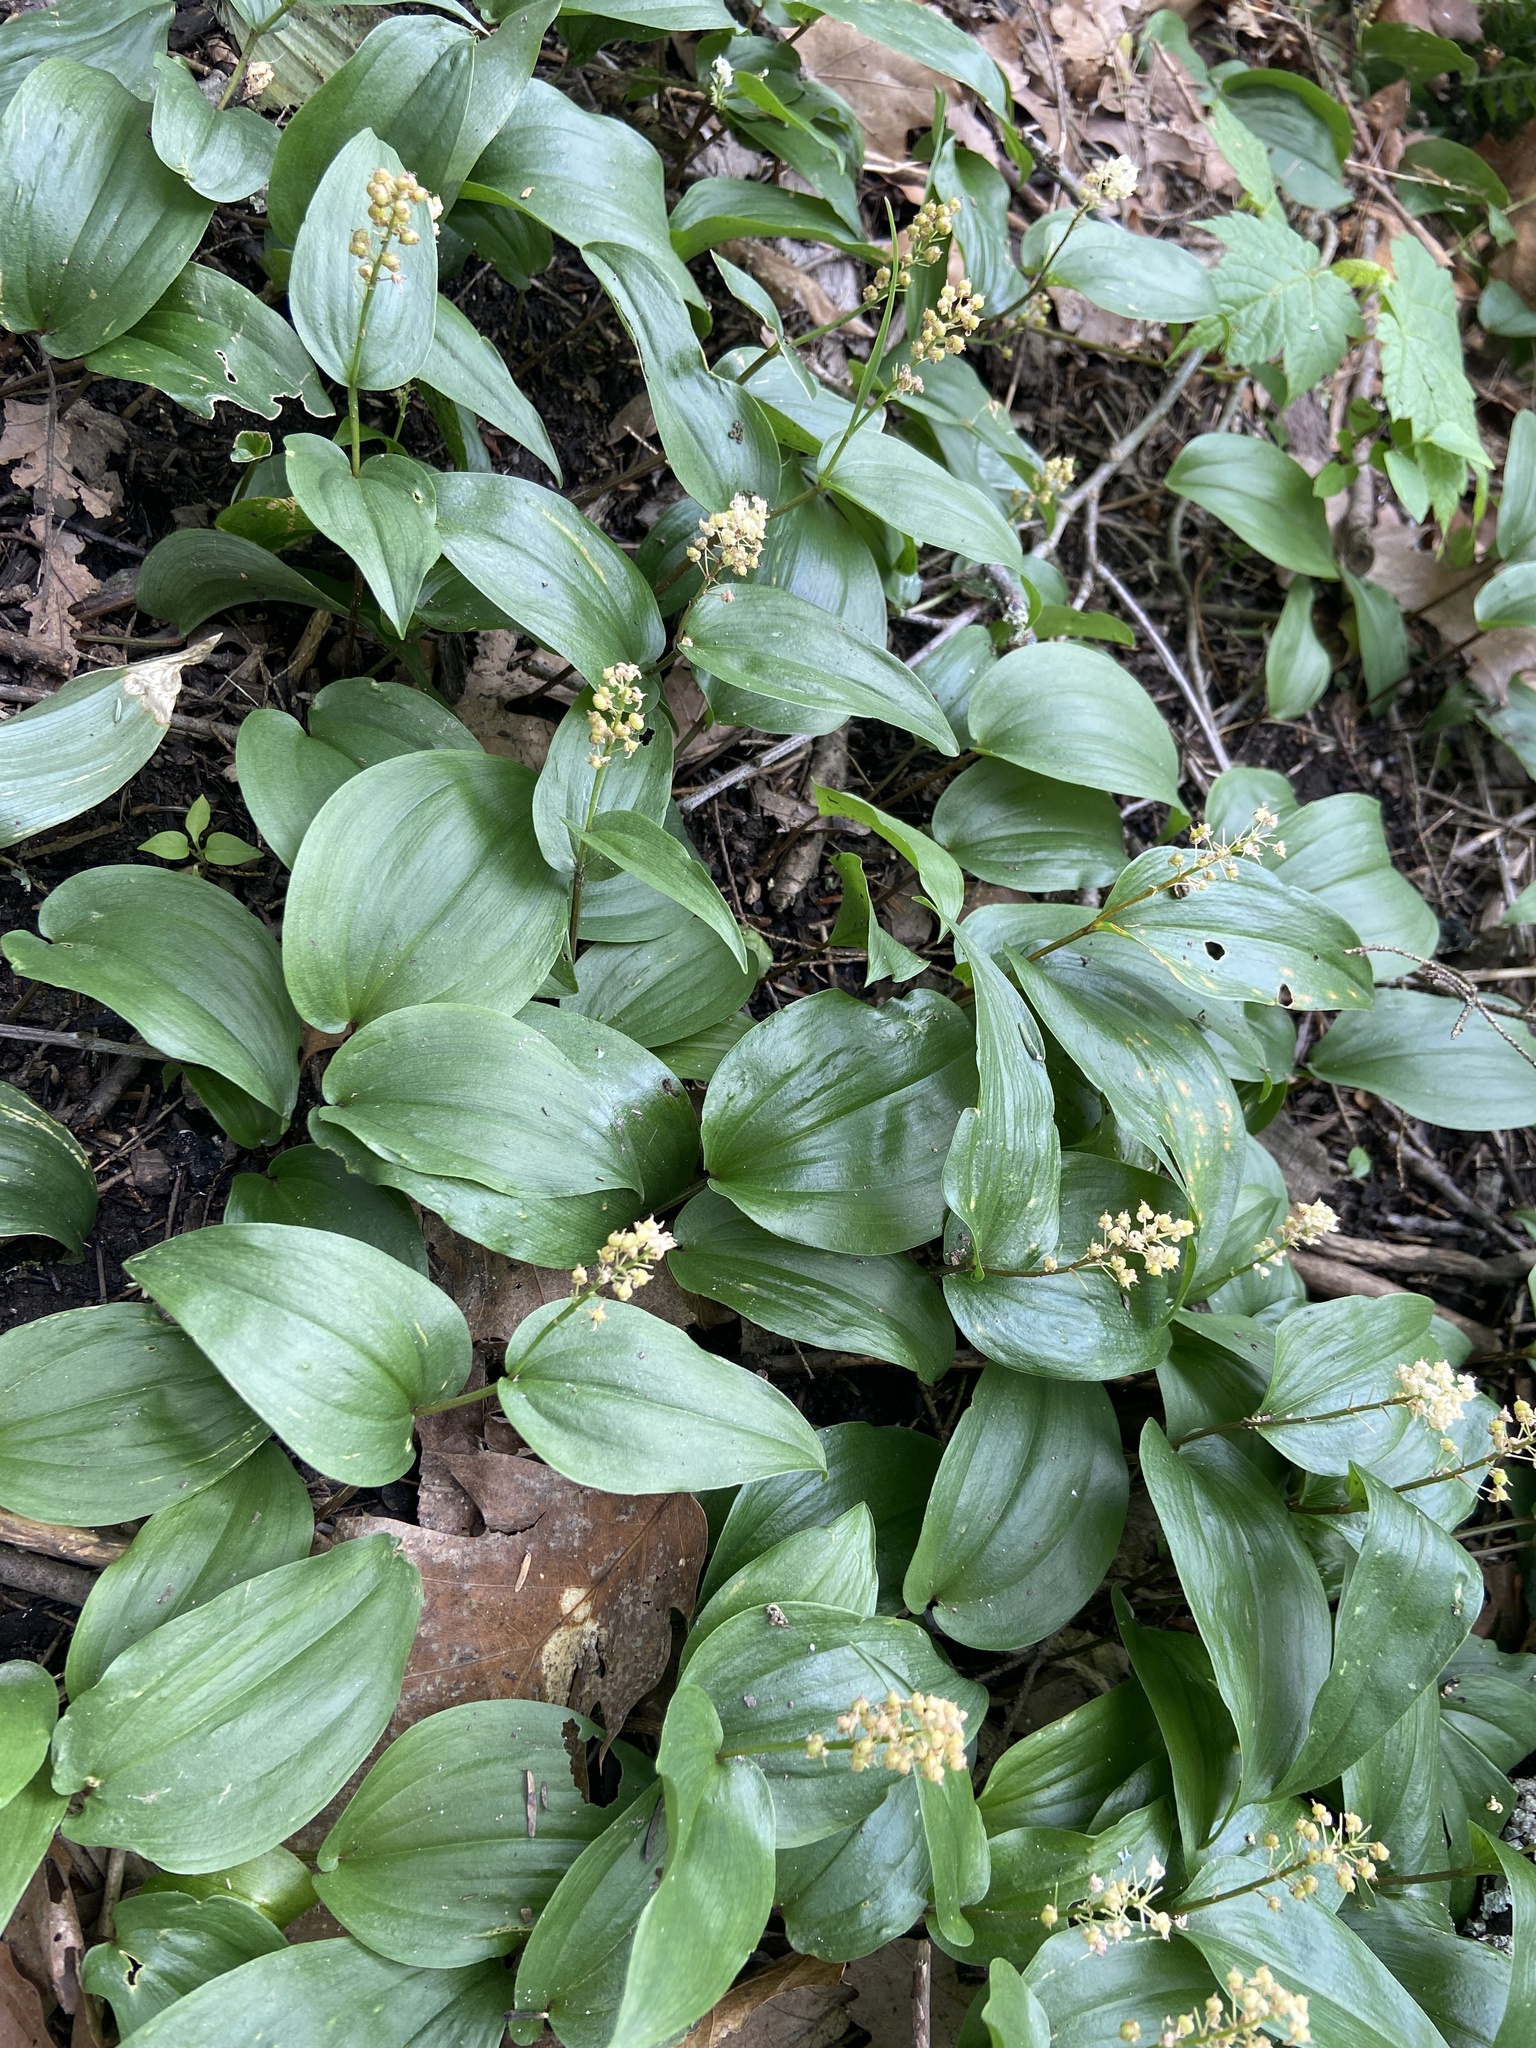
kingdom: Plantae
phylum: Tracheophyta
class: Liliopsida
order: Asparagales
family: Asparagaceae
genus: Maianthemum
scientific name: Maianthemum canadense
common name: False lily-of-the-valley
